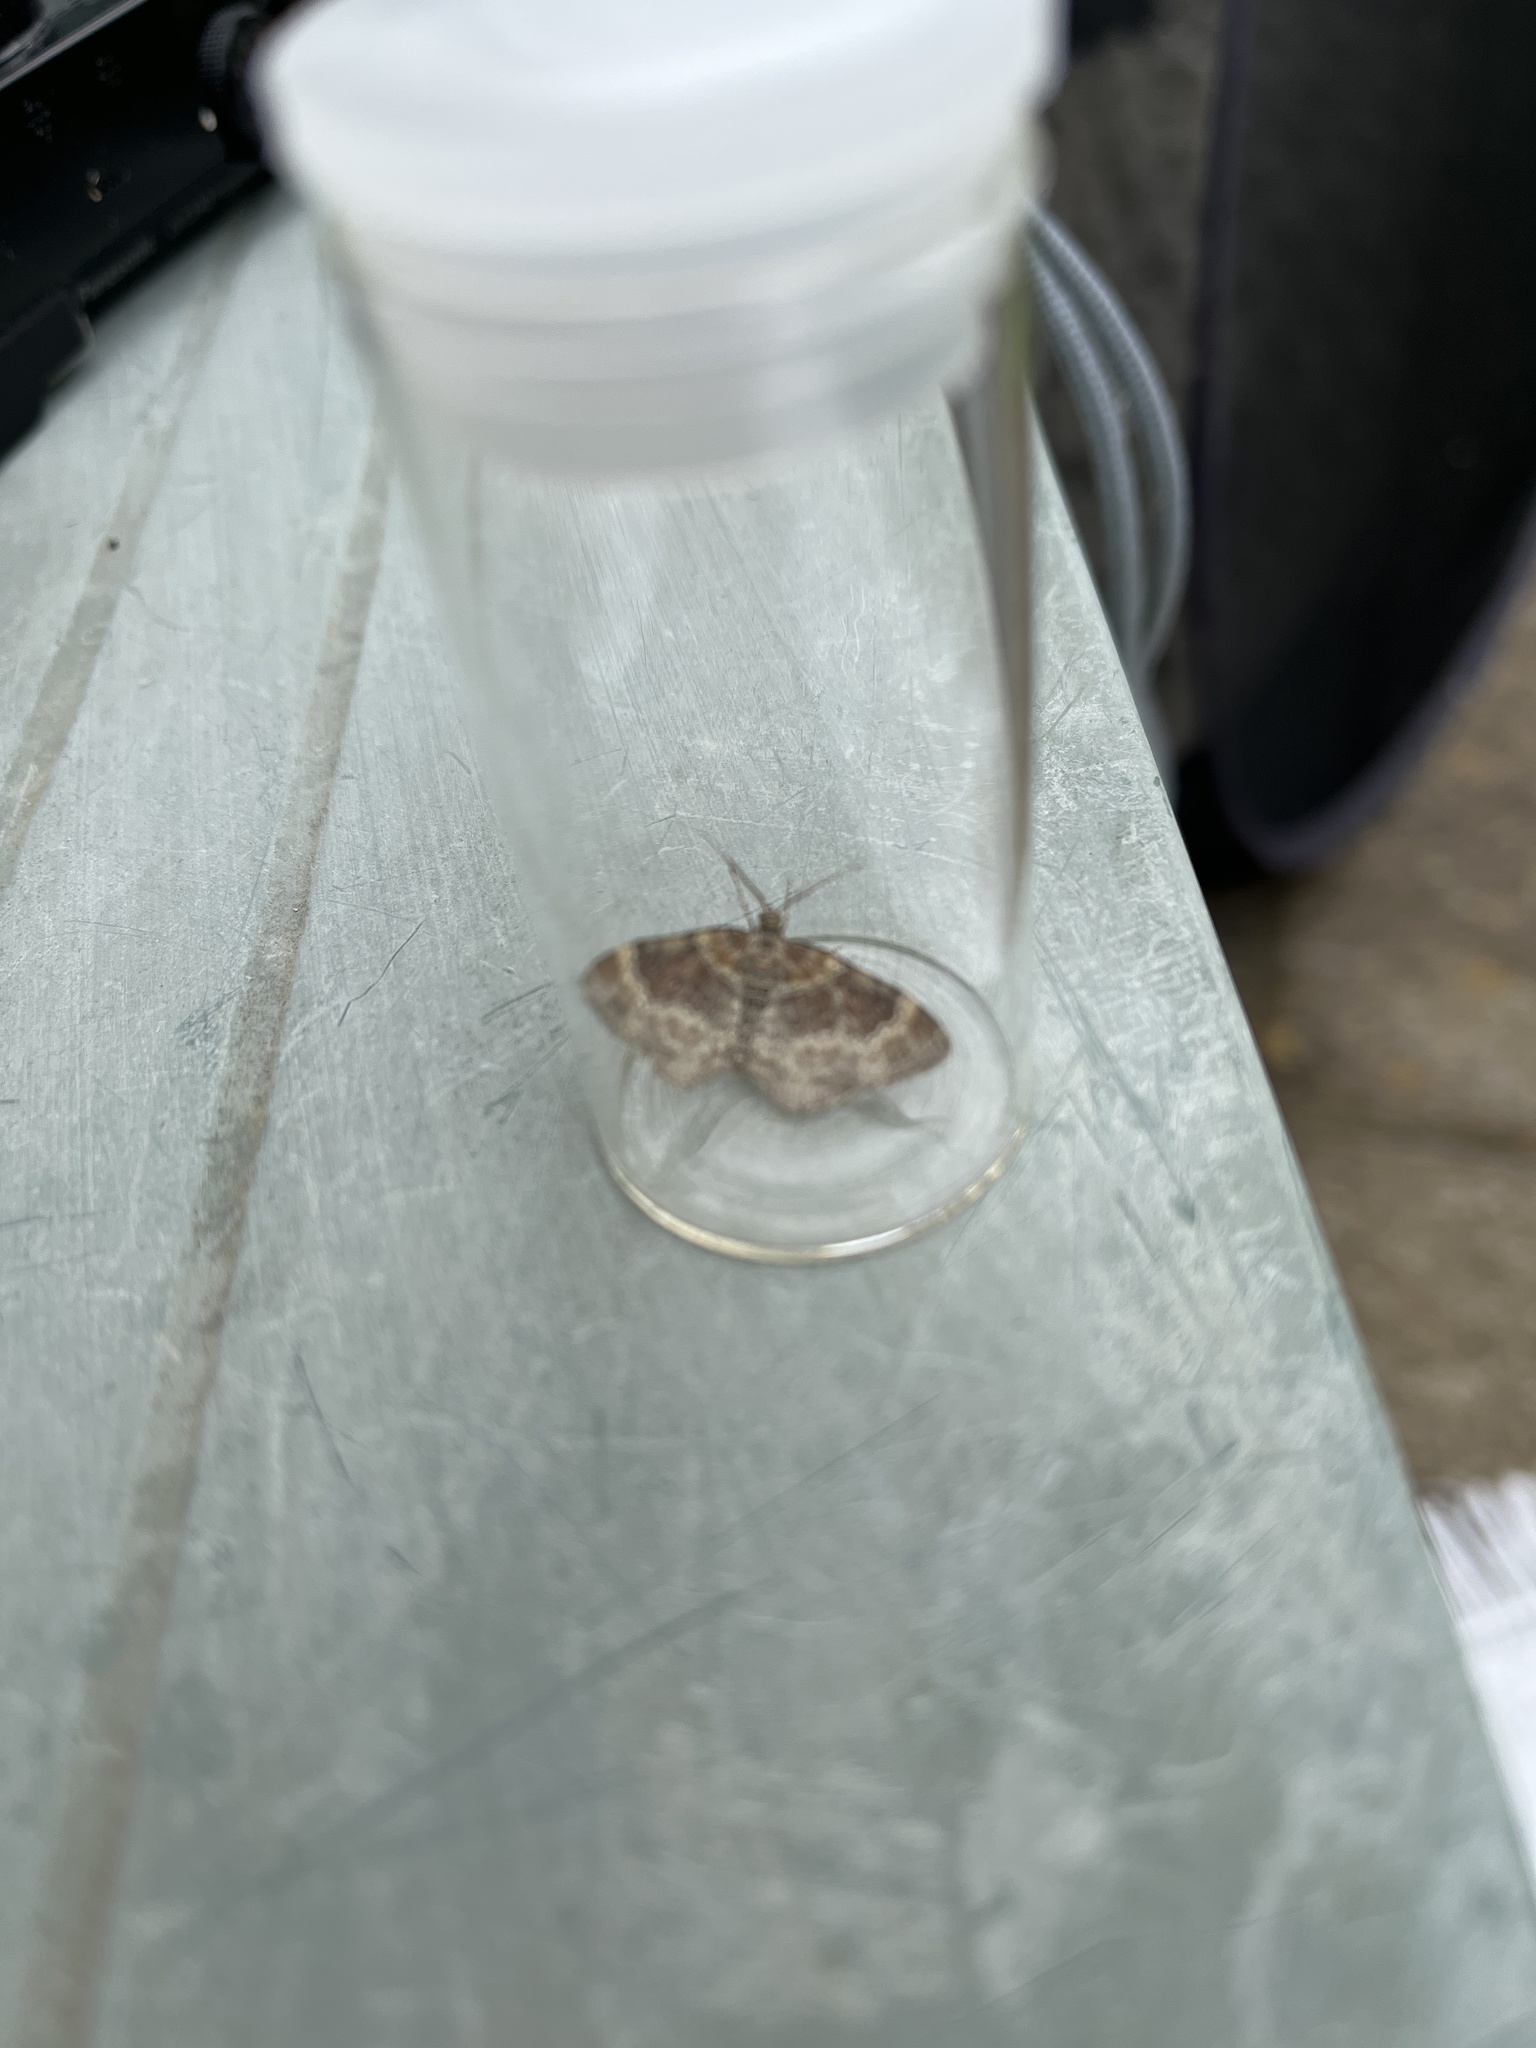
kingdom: Animalia
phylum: Arthropoda
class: Insecta
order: Lepidoptera
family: Geometridae
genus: Xanthorhoe
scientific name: Xanthorhoe spadicearia
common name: Red twin-spot carpet
